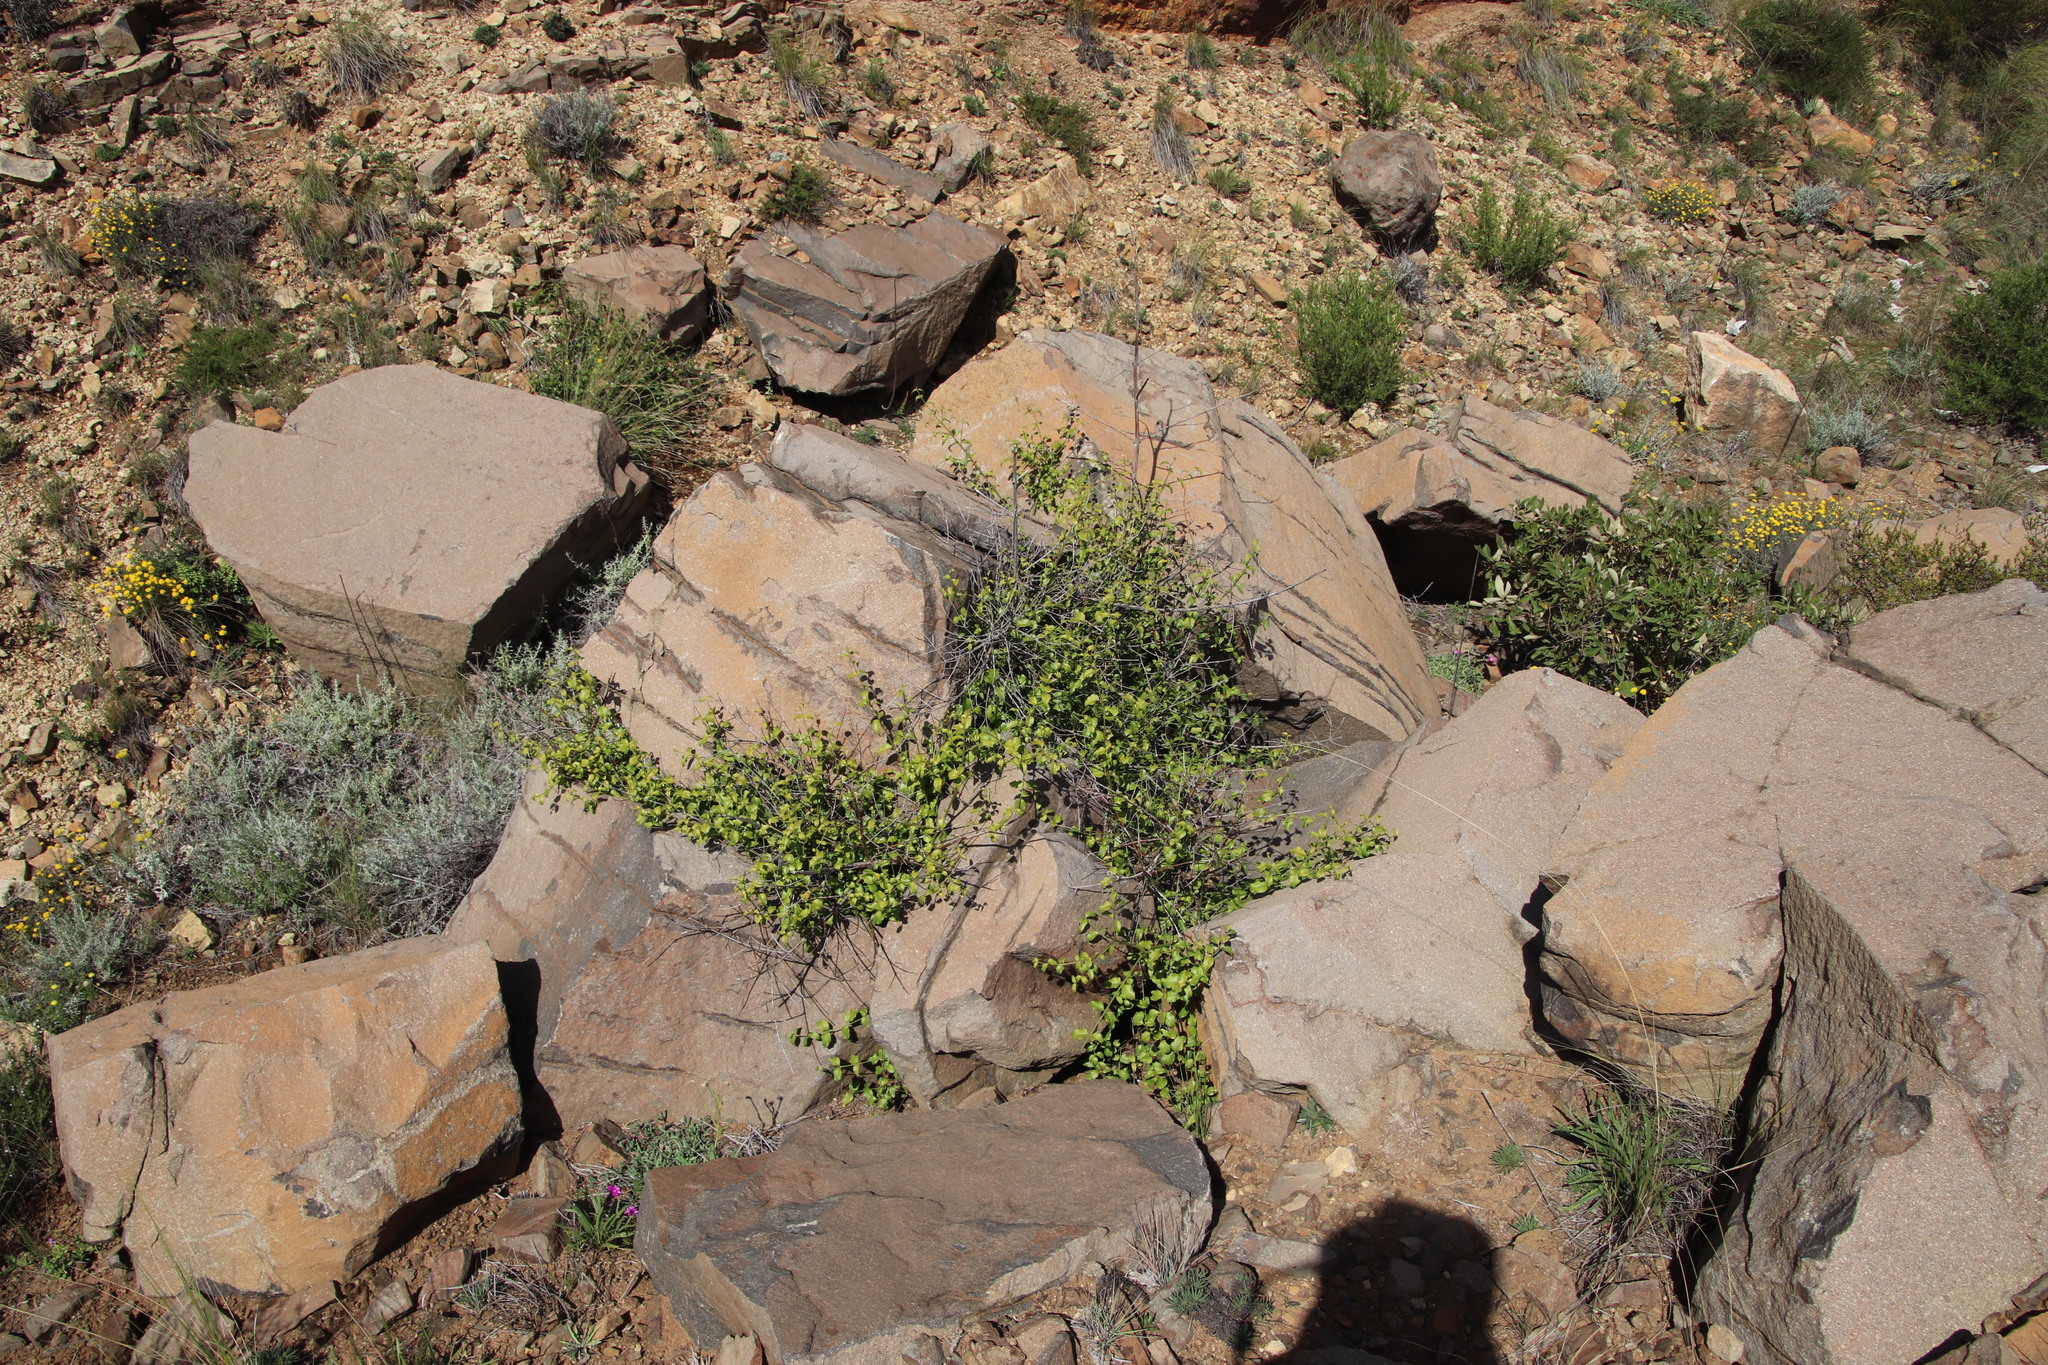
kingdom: Plantae
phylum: Tracheophyta
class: Magnoliopsida
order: Lamiales
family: Stilbaceae
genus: Halleria
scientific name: Halleria lucida
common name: Tree fuschia
